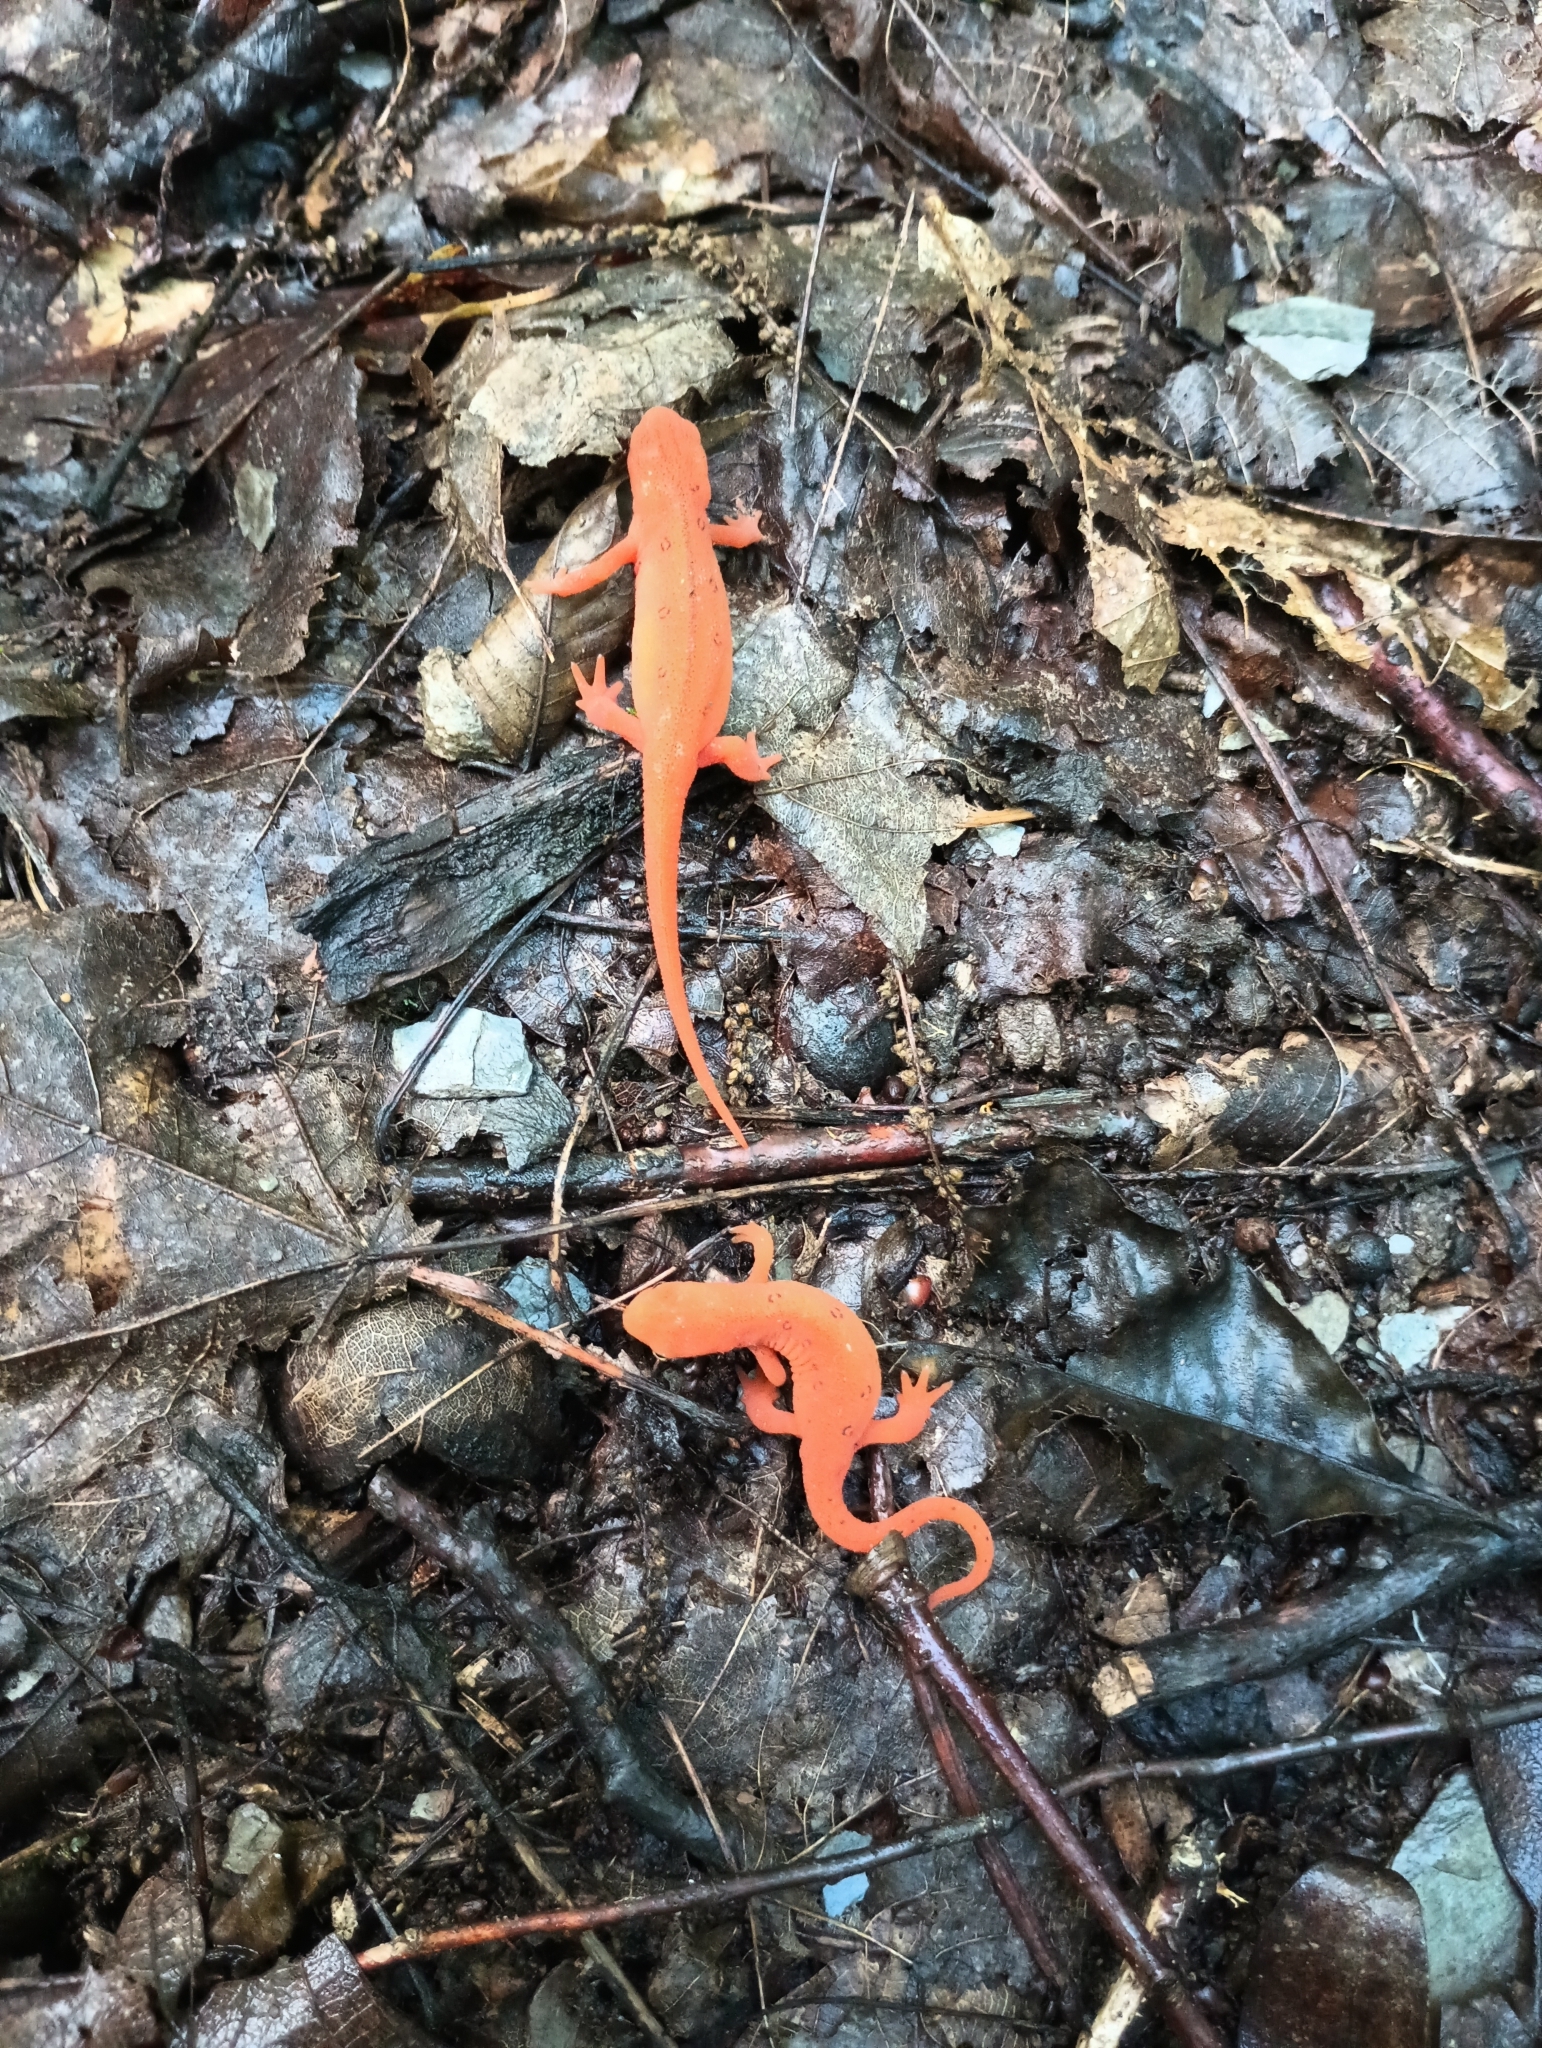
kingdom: Animalia
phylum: Chordata
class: Amphibia
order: Caudata
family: Salamandridae
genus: Notophthalmus
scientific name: Notophthalmus viridescens
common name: Eastern newt
